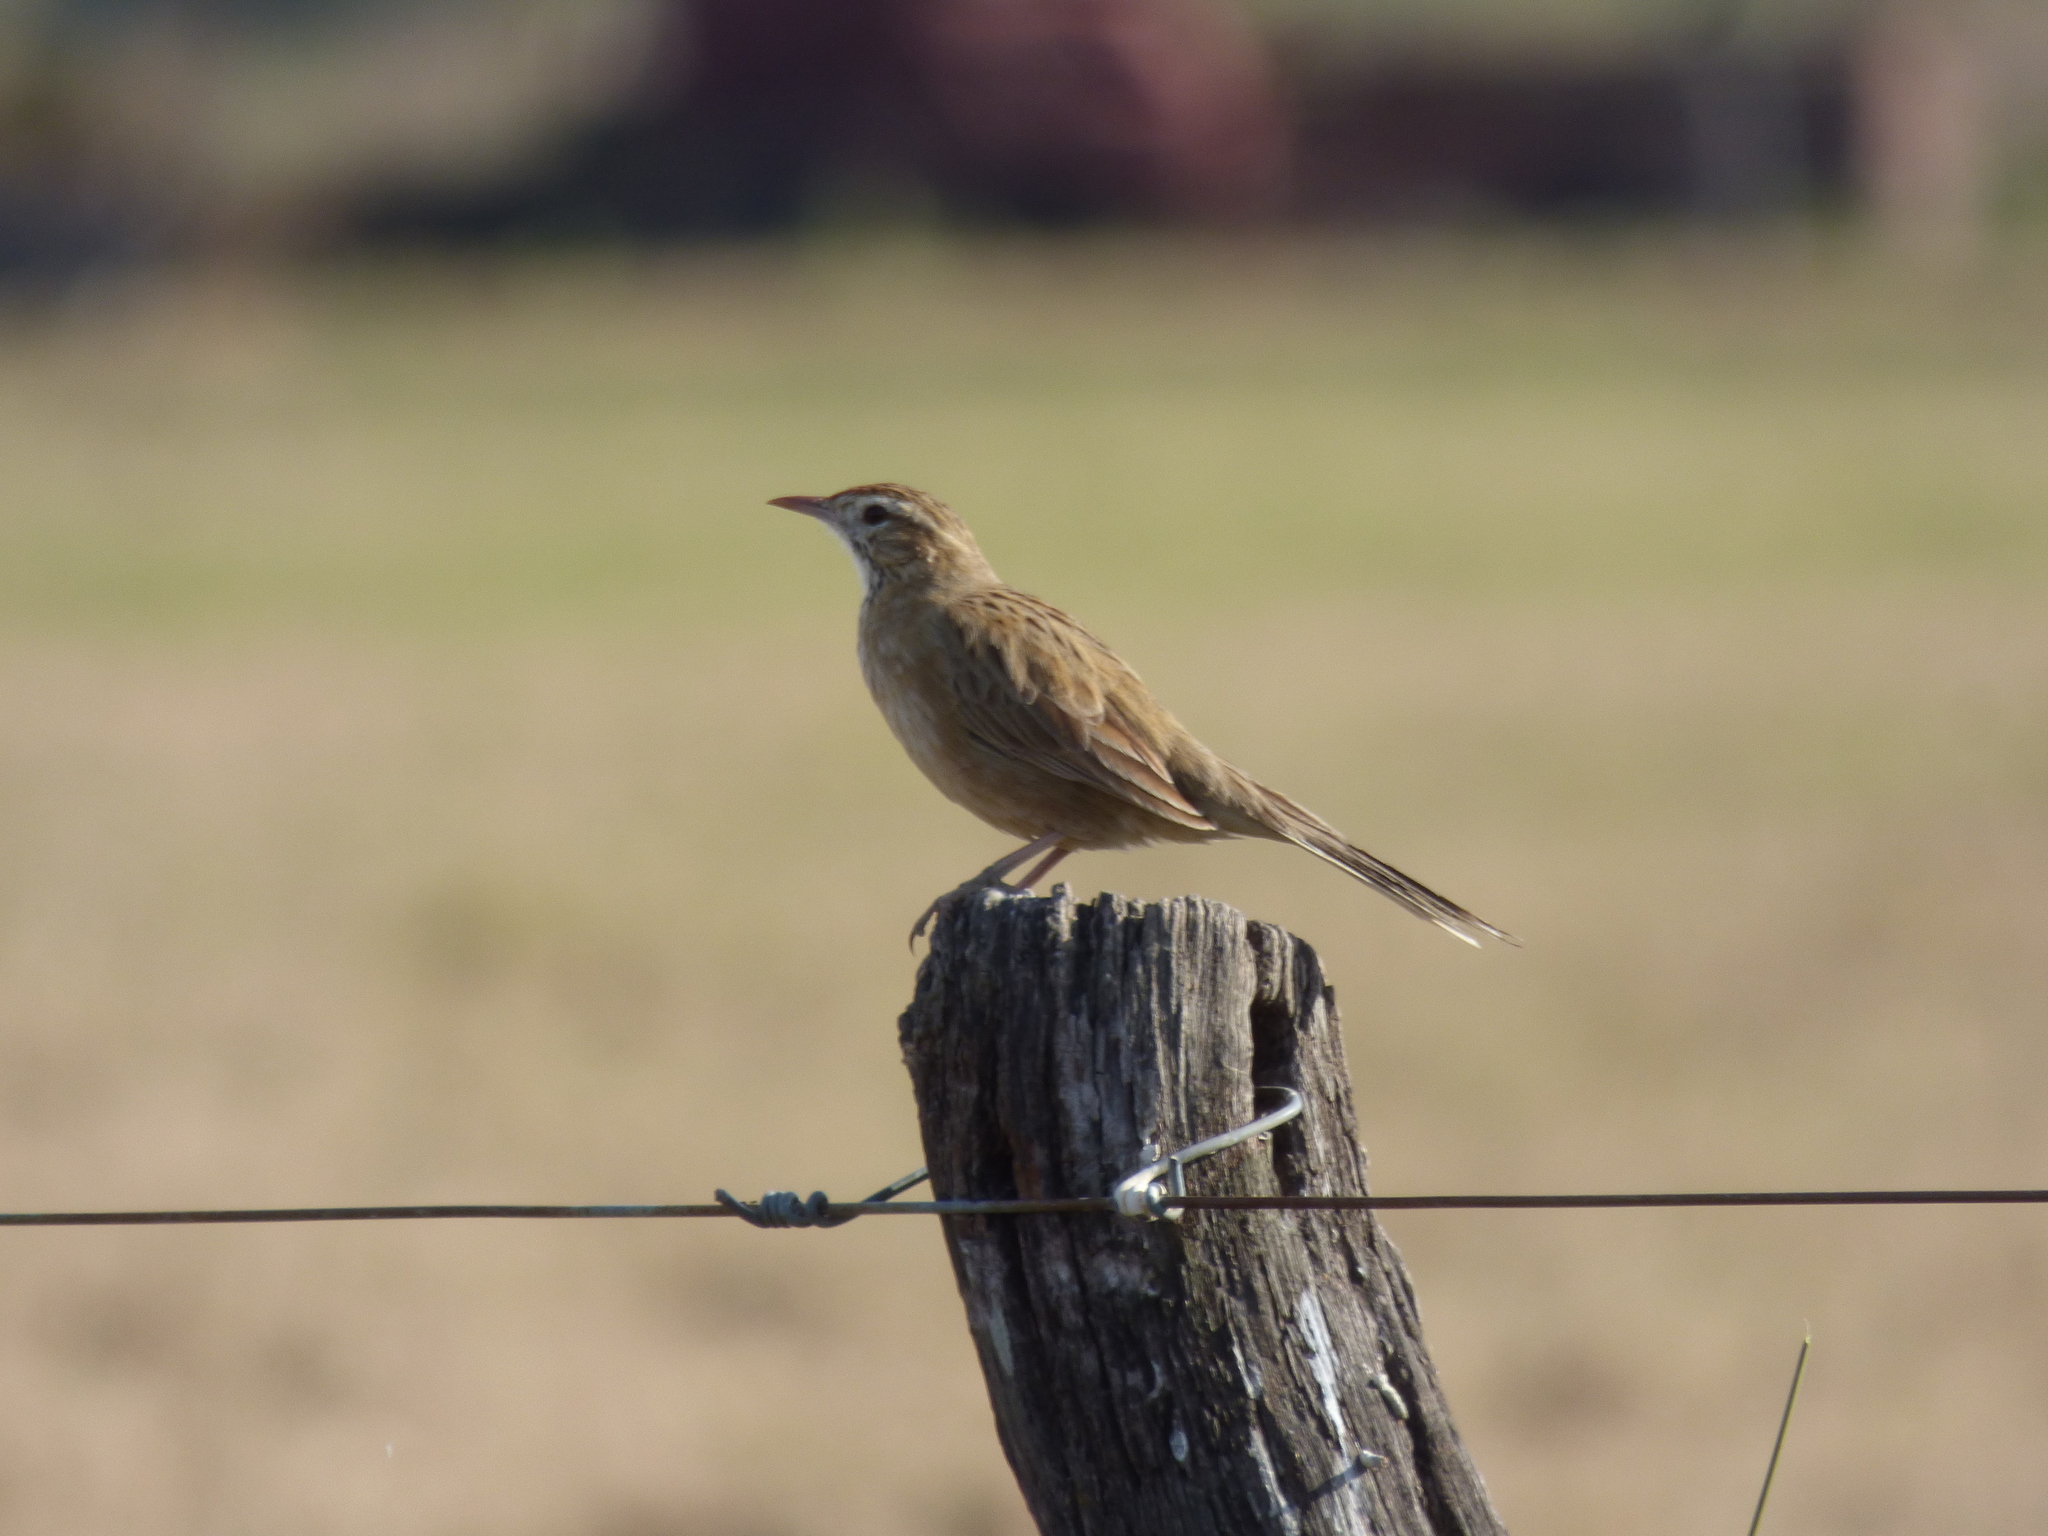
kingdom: Animalia
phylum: Chordata
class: Aves
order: Passeriformes
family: Furnariidae
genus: Anumbius
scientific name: Anumbius annumbi
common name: Firewood-gatherer
